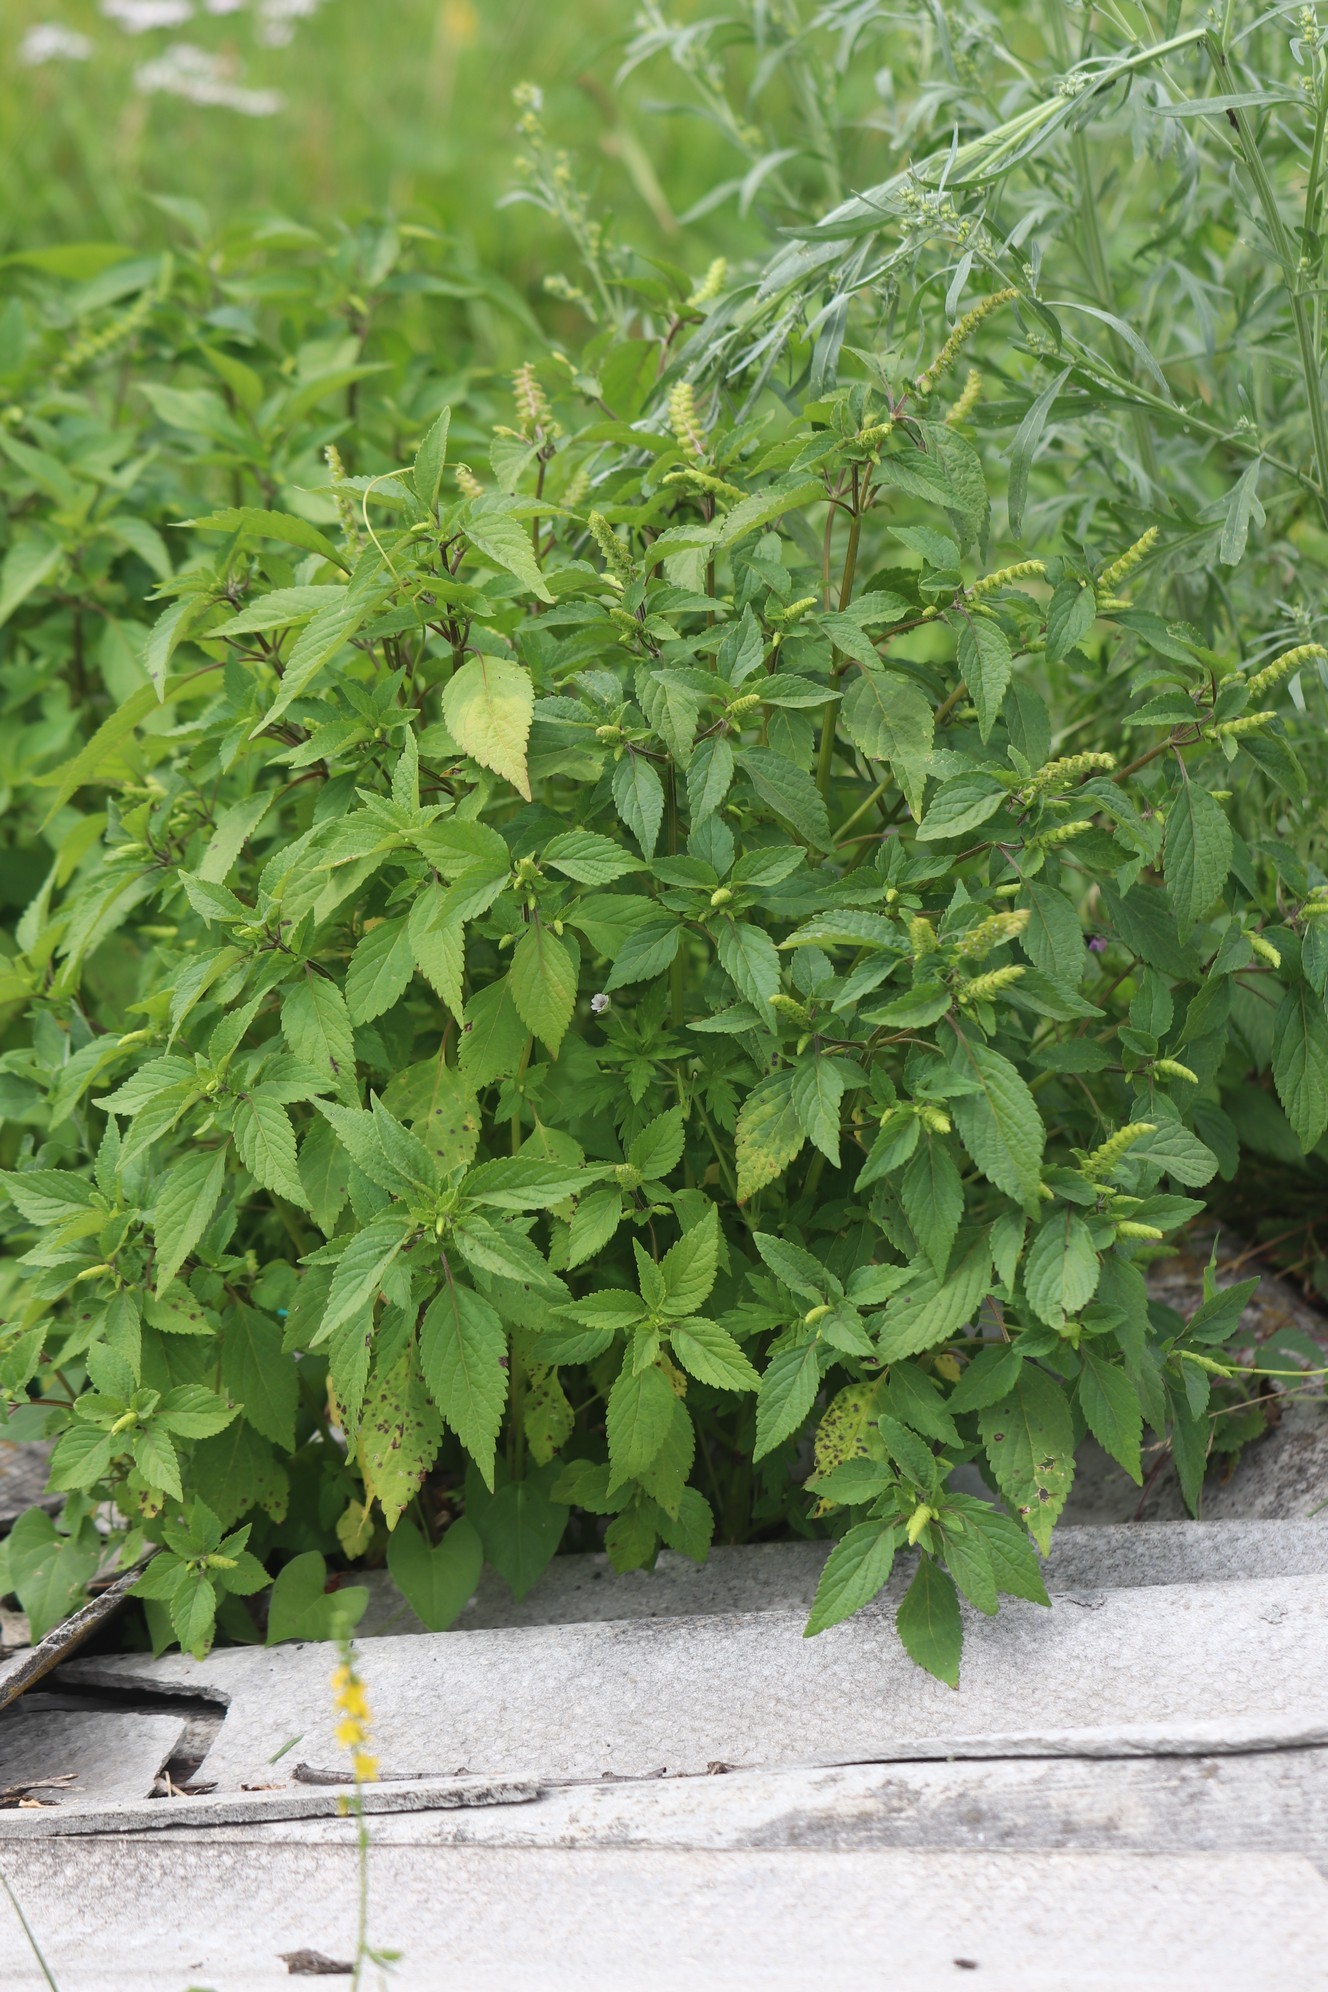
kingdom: Plantae
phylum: Tracheophyta
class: Magnoliopsida
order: Lamiales
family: Lamiaceae
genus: Elsholtzia
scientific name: Elsholtzia ciliata
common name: Ciliate elsholtzia
